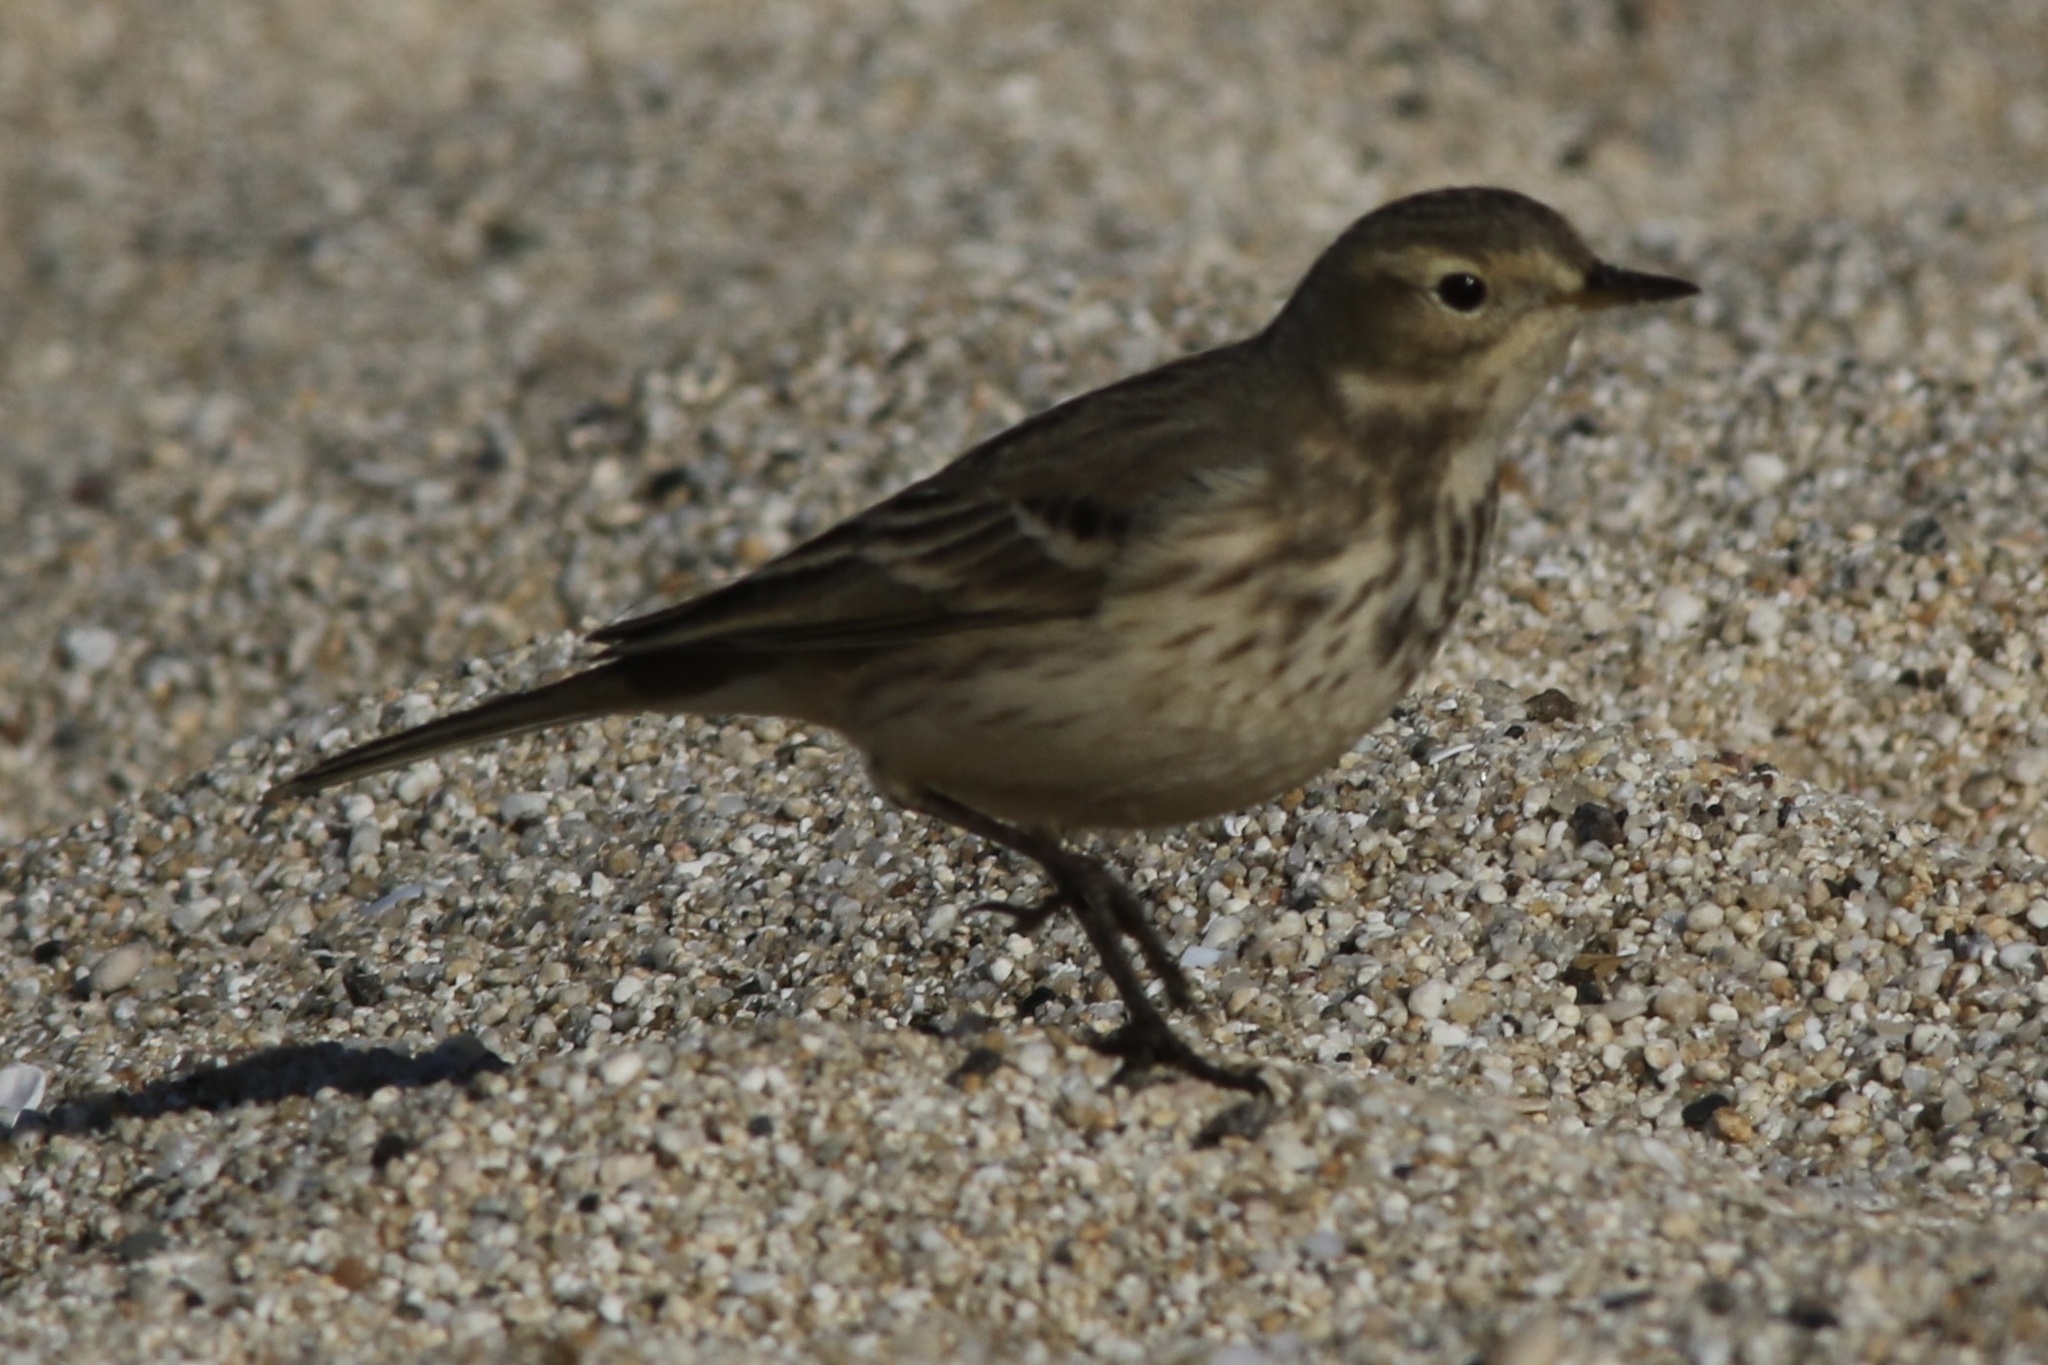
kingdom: Animalia
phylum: Chordata
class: Aves
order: Passeriformes
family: Motacillidae
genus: Anthus
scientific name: Anthus rubescens
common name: Buff-bellied pipit
